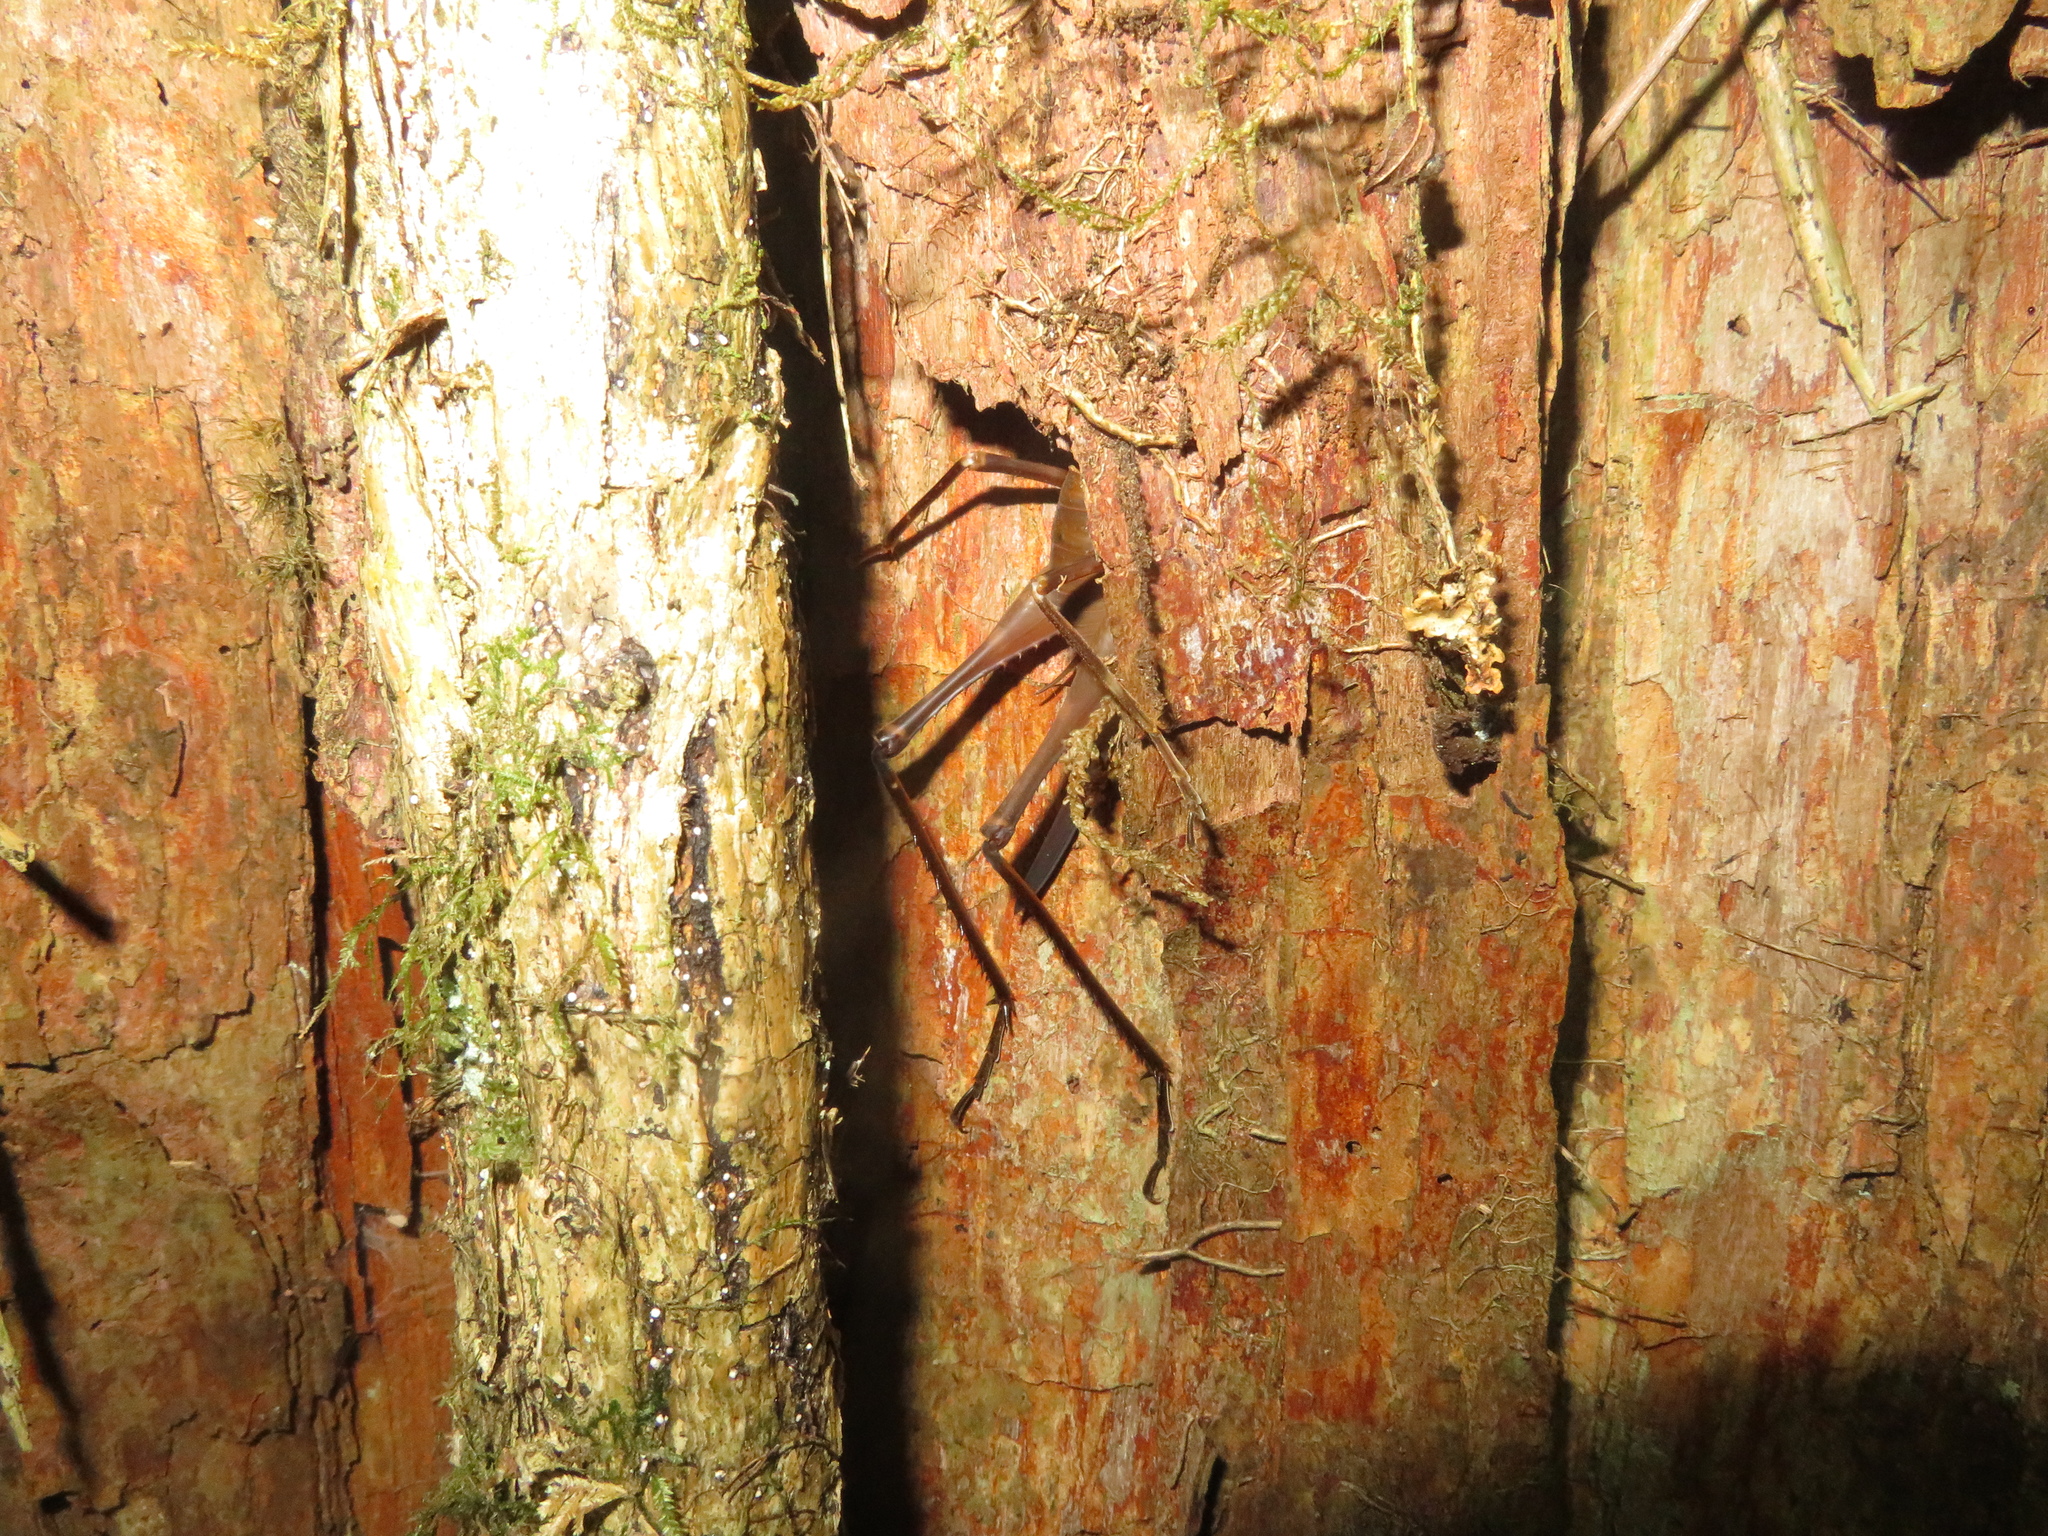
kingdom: Animalia
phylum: Arthropoda
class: Insecta
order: Orthoptera
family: Rhaphidophoridae
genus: Pachyrhamma
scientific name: Pachyrhamma longipes
